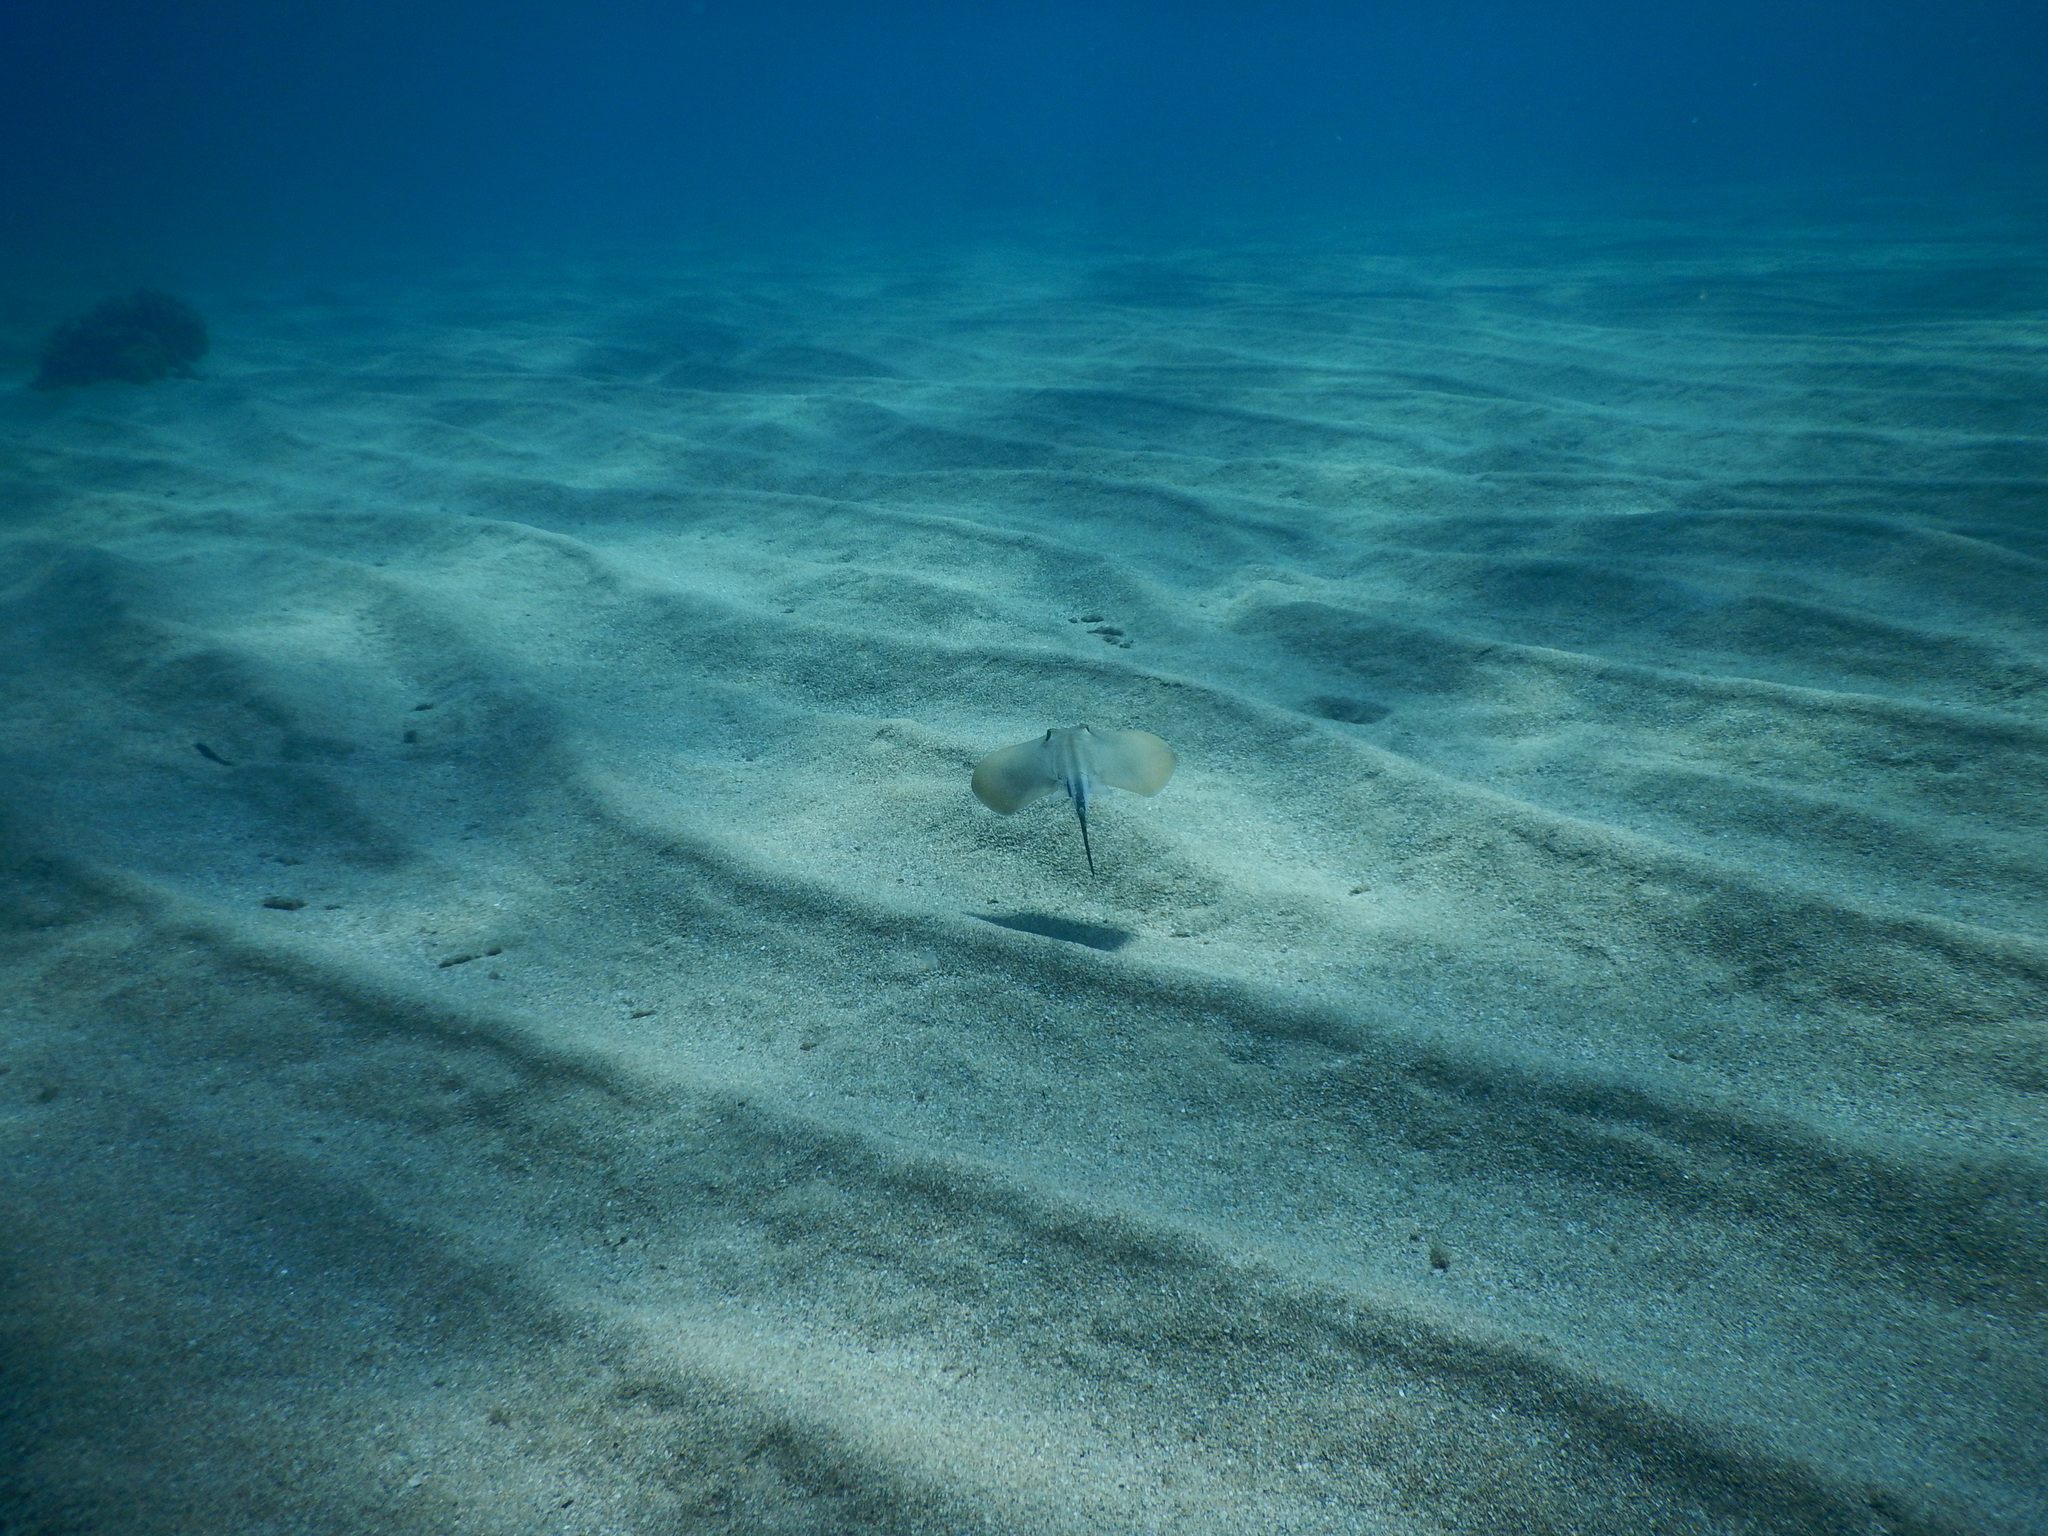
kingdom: Animalia
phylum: Chordata
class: Elasmobranchii
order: Myliobatiformes
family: Dasyatidae
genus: Dasyatis
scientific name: Dasyatis pastinaca
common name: Common stingray
